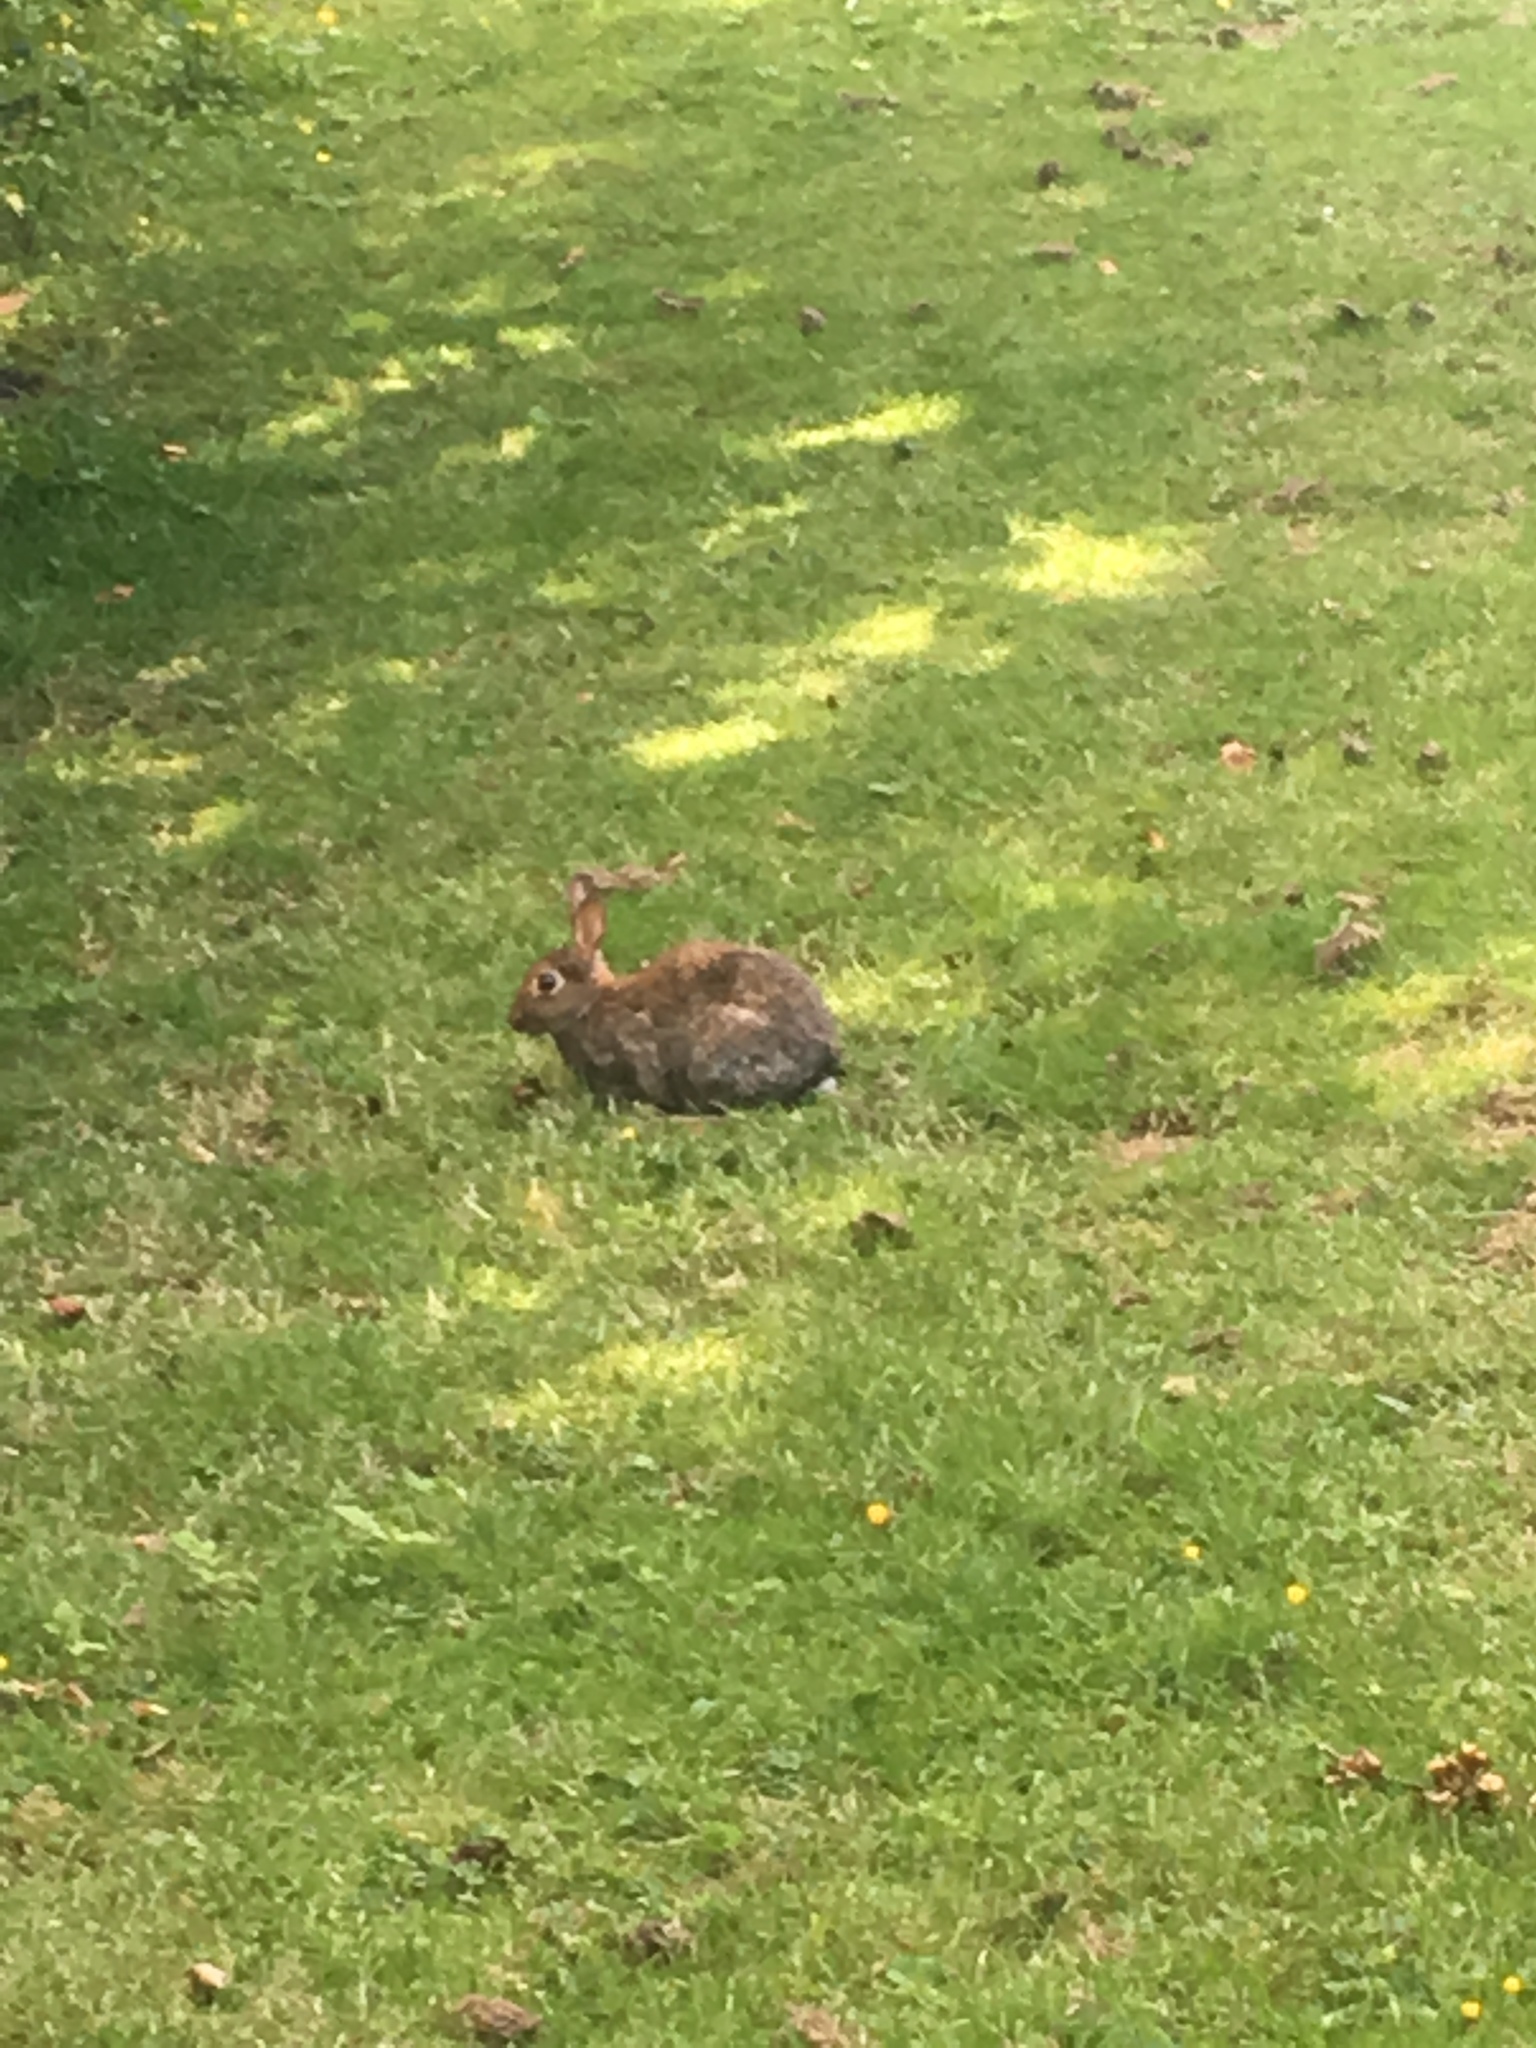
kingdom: Animalia
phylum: Chordata
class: Mammalia
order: Lagomorpha
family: Leporidae
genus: Oryctolagus
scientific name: Oryctolagus cuniculus
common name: European rabbit
